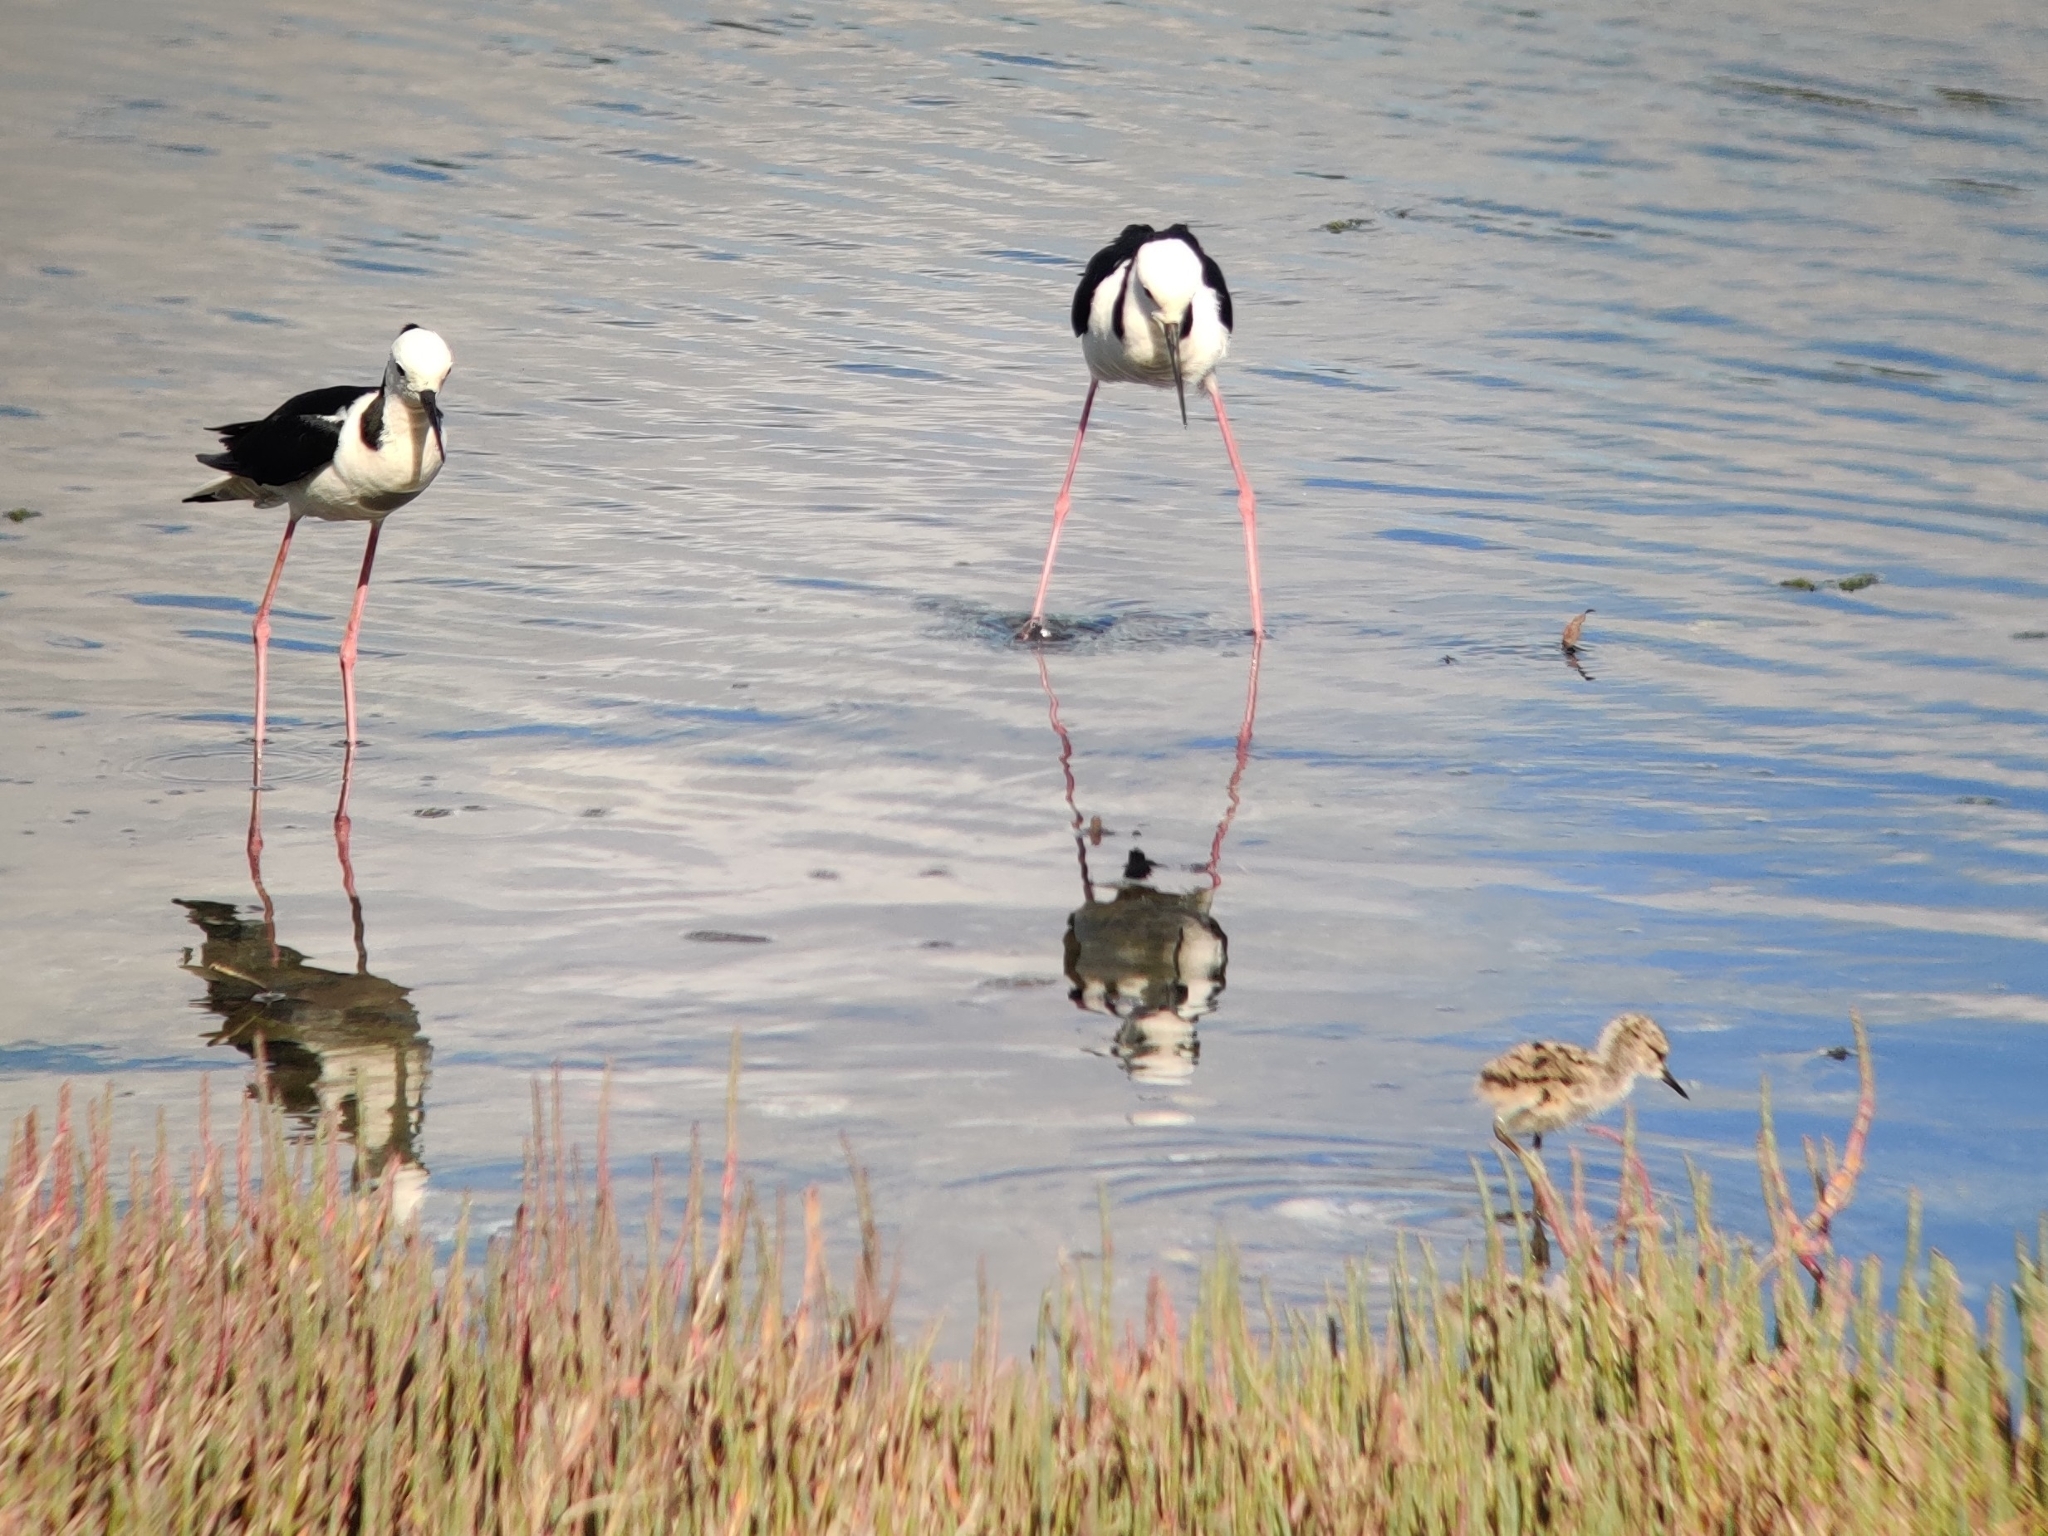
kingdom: Animalia
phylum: Chordata
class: Aves
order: Charadriiformes
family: Recurvirostridae
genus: Himantopus
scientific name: Himantopus leucocephalus
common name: White-headed stilt
